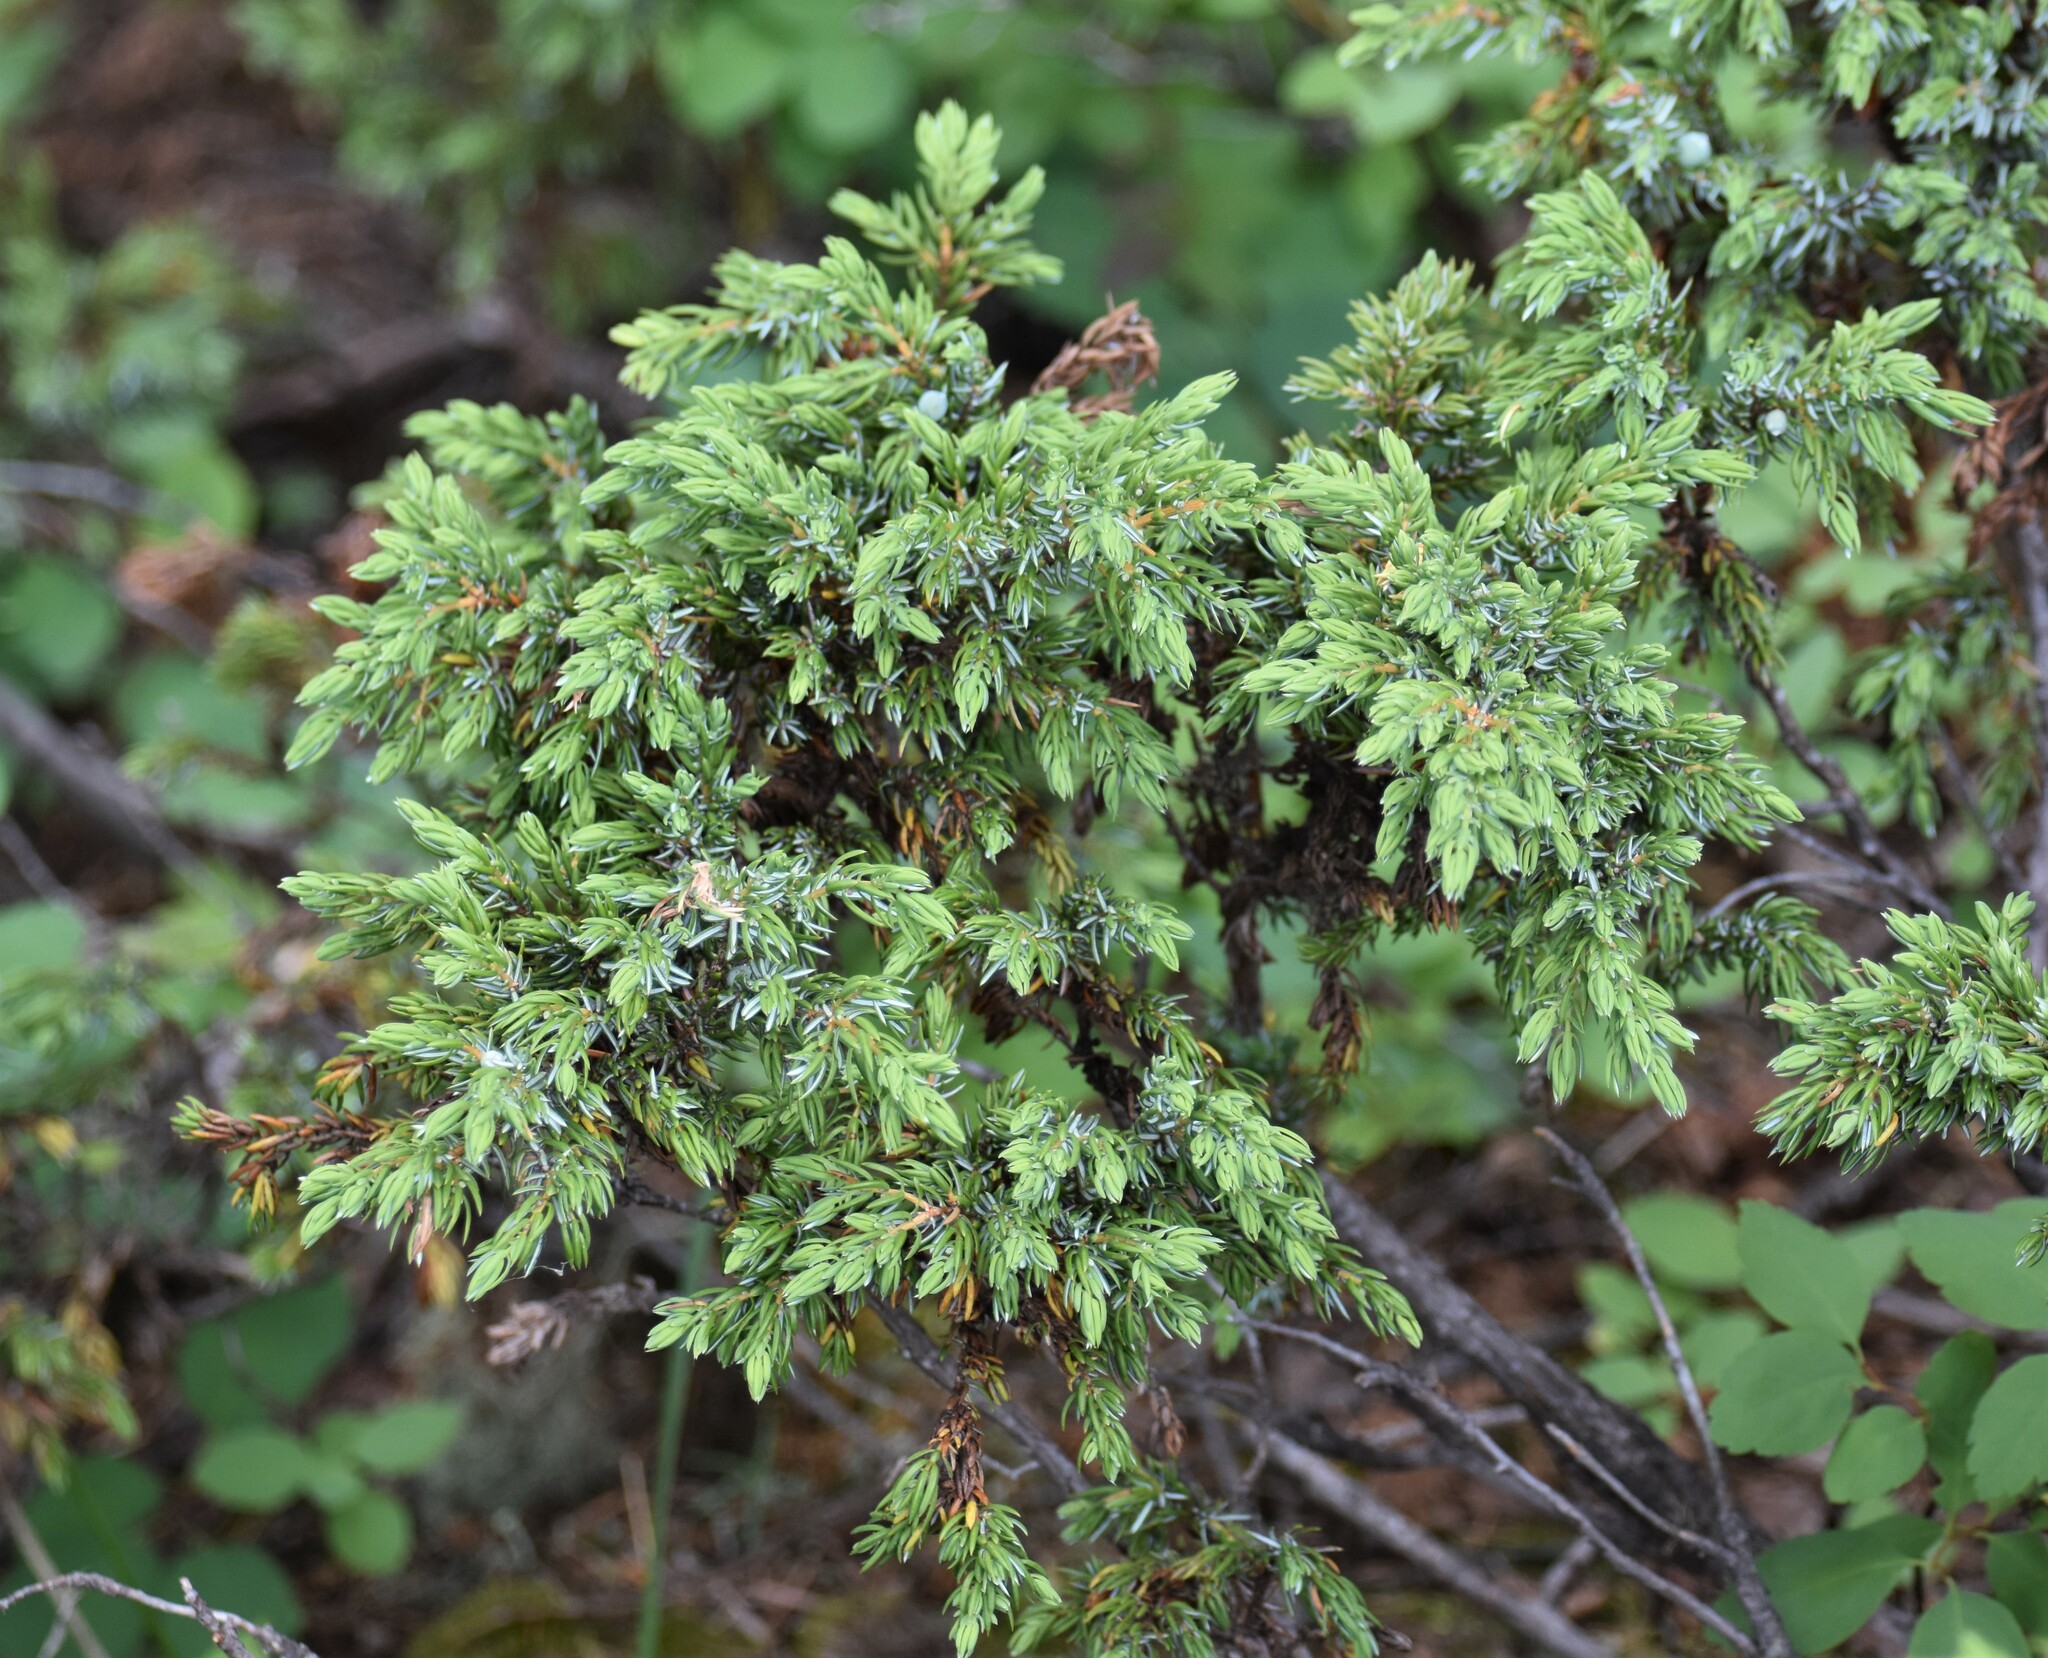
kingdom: Plantae
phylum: Tracheophyta
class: Pinopsida
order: Pinales
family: Cupressaceae
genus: Juniperus
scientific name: Juniperus communis
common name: Common juniper
